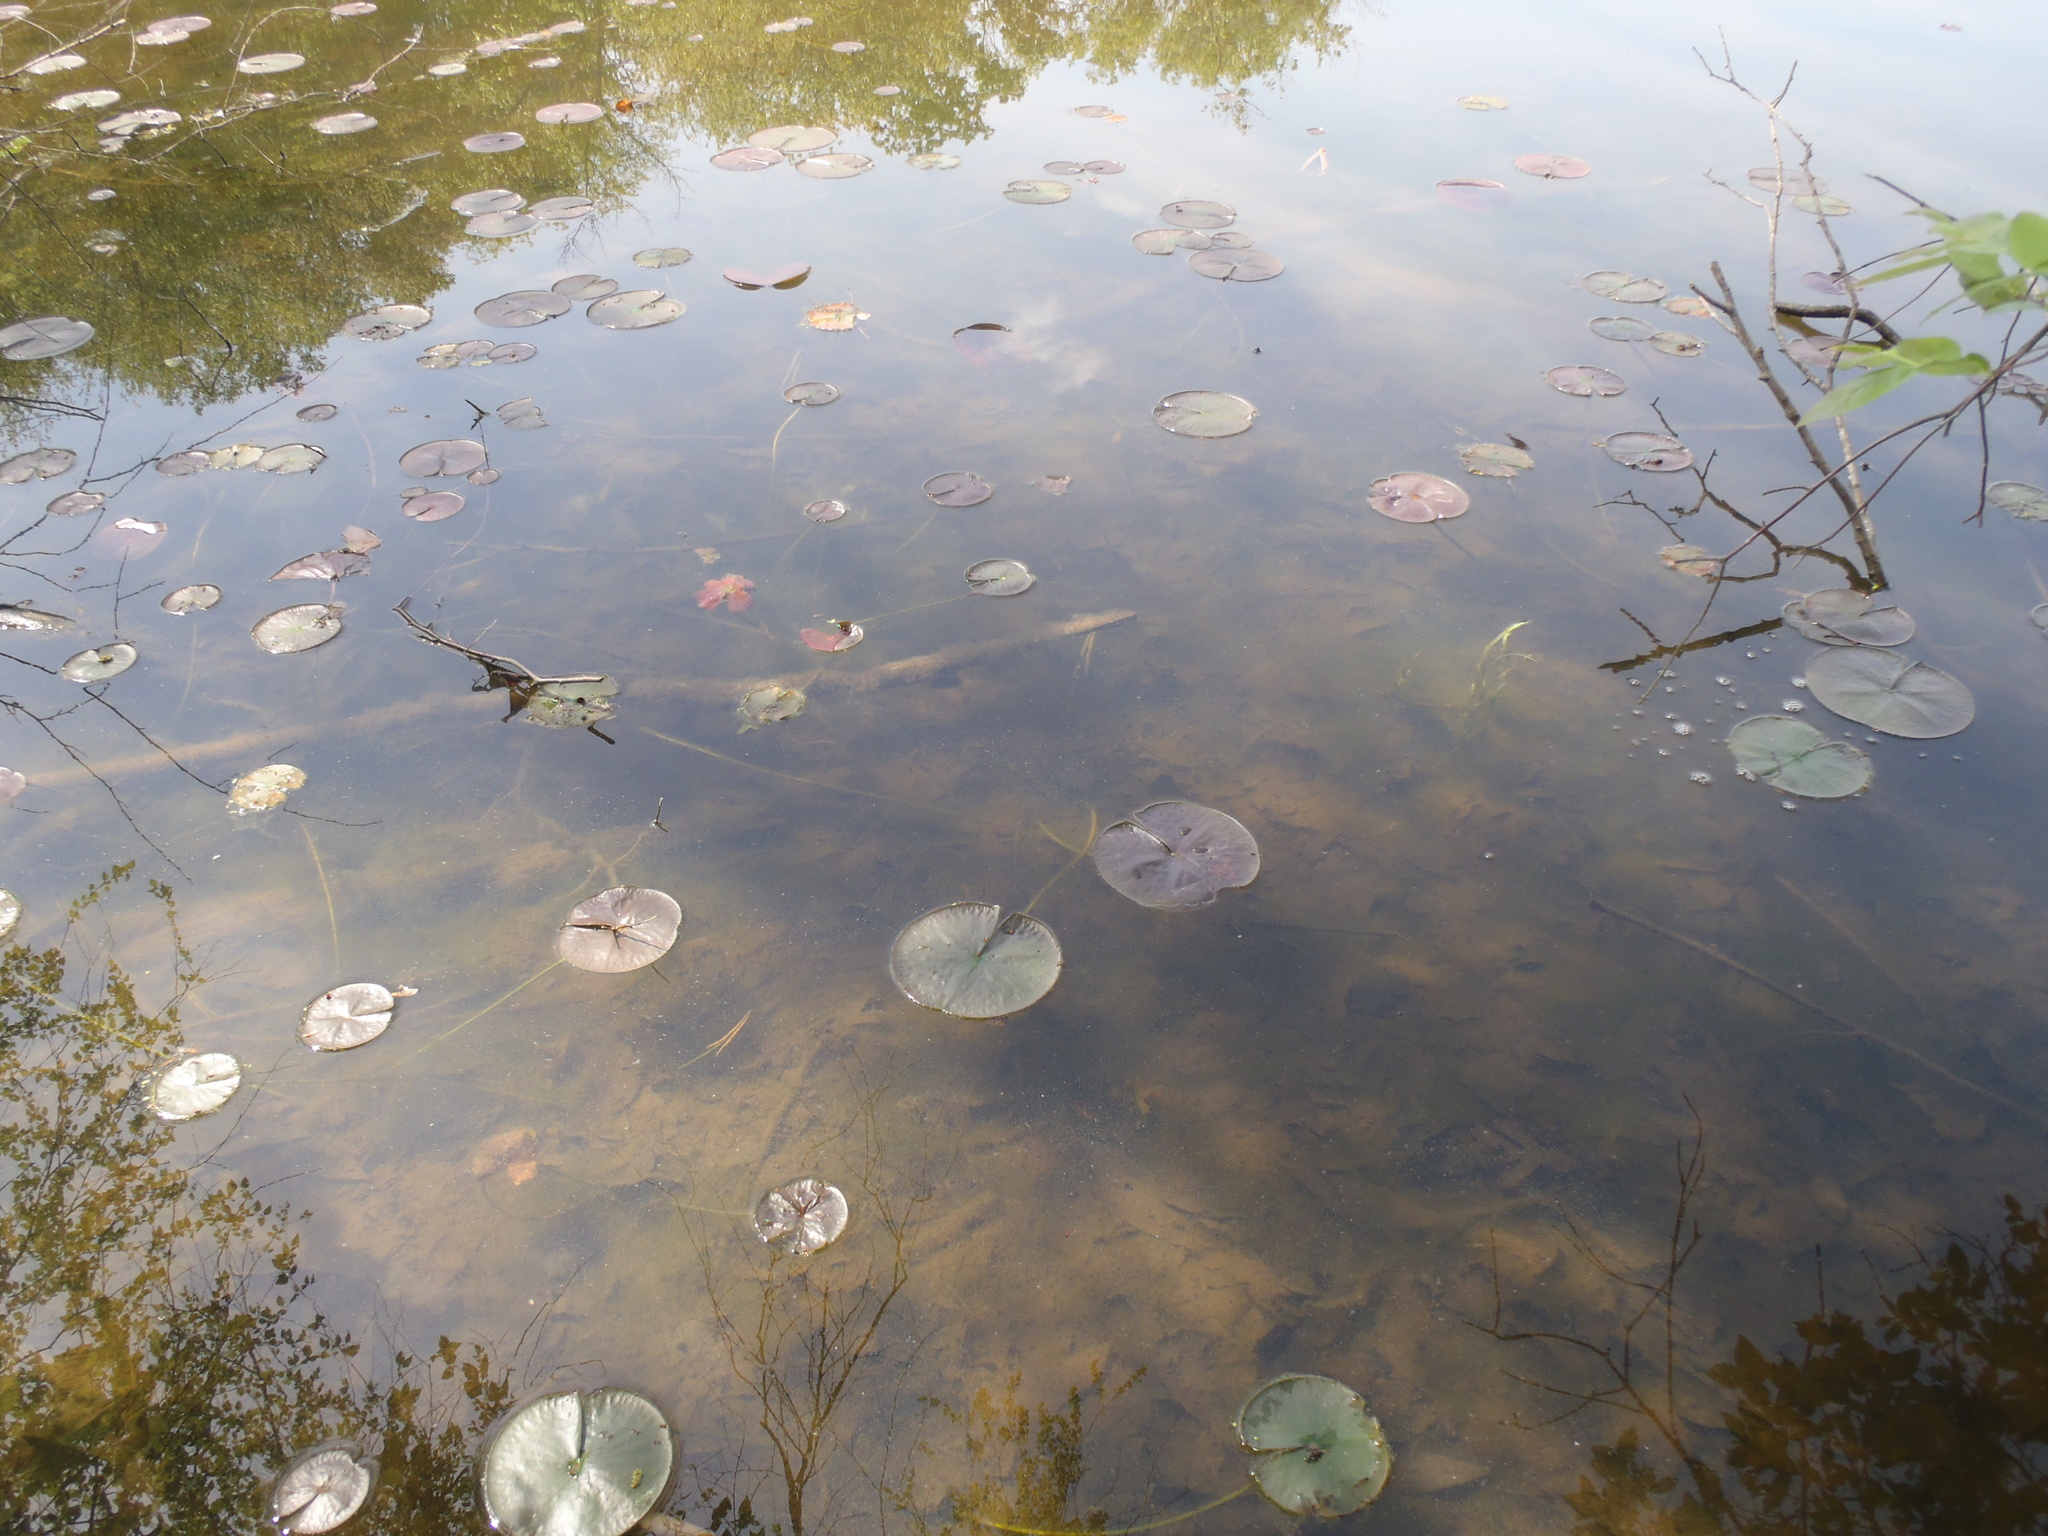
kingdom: Plantae
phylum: Tracheophyta
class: Magnoliopsida
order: Nymphaeales
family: Nymphaeaceae
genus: Nymphaea
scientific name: Nymphaea odorata
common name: Fragrant water-lily
